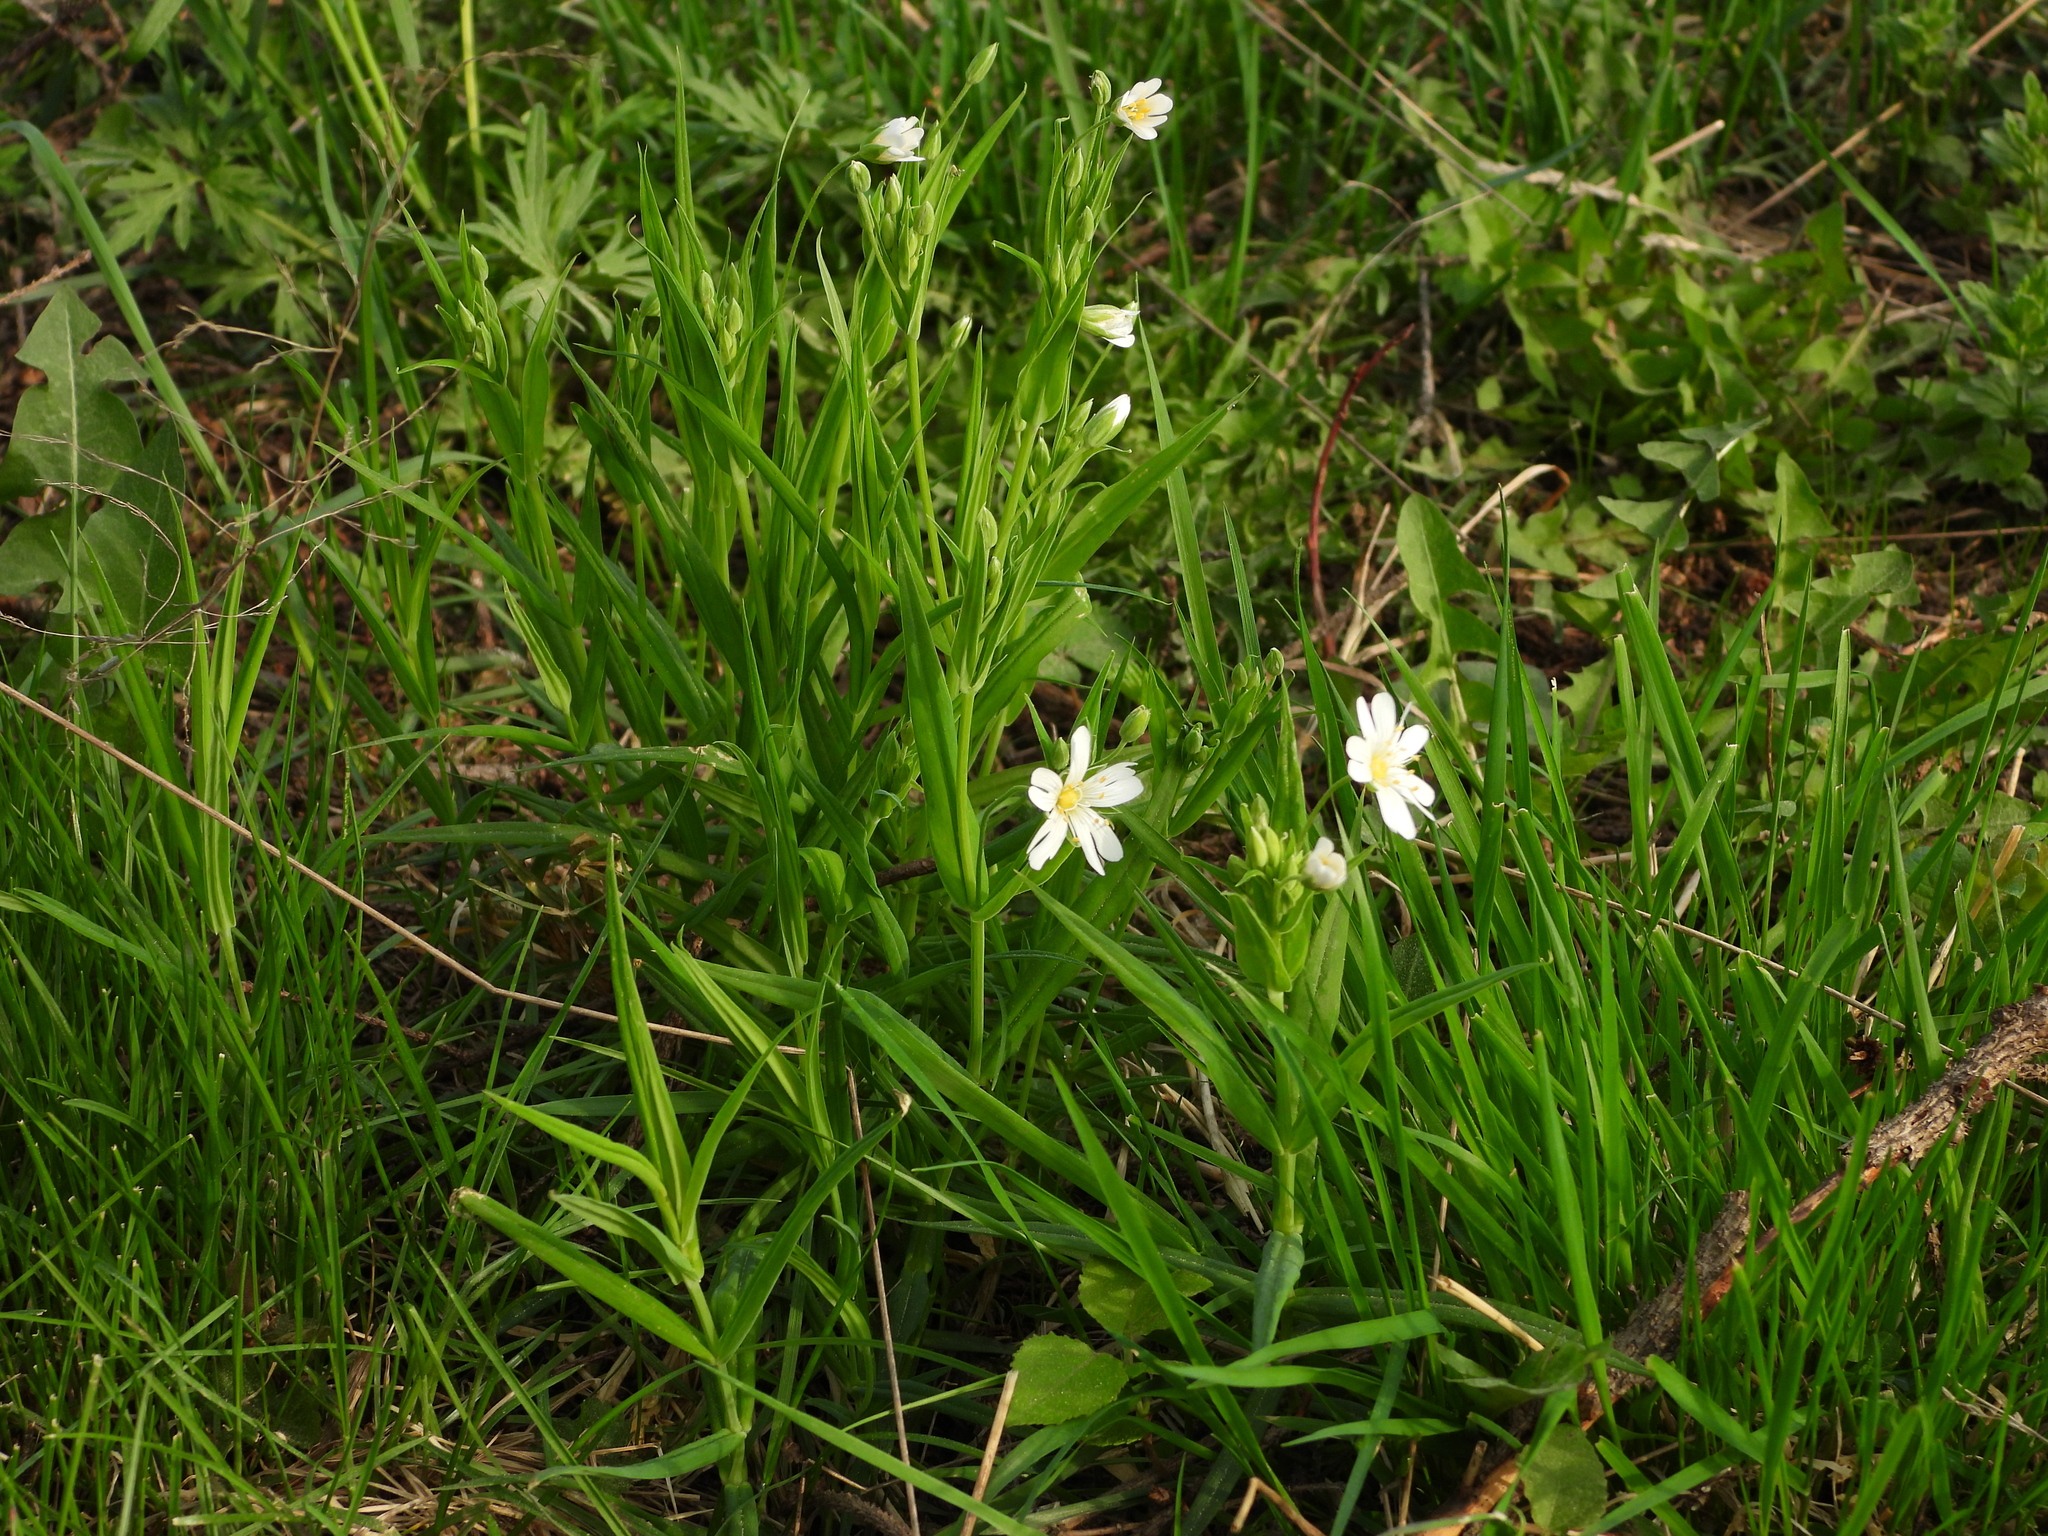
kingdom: Plantae
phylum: Tracheophyta
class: Magnoliopsida
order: Caryophyllales
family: Caryophyllaceae
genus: Rabelera
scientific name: Rabelera holostea
